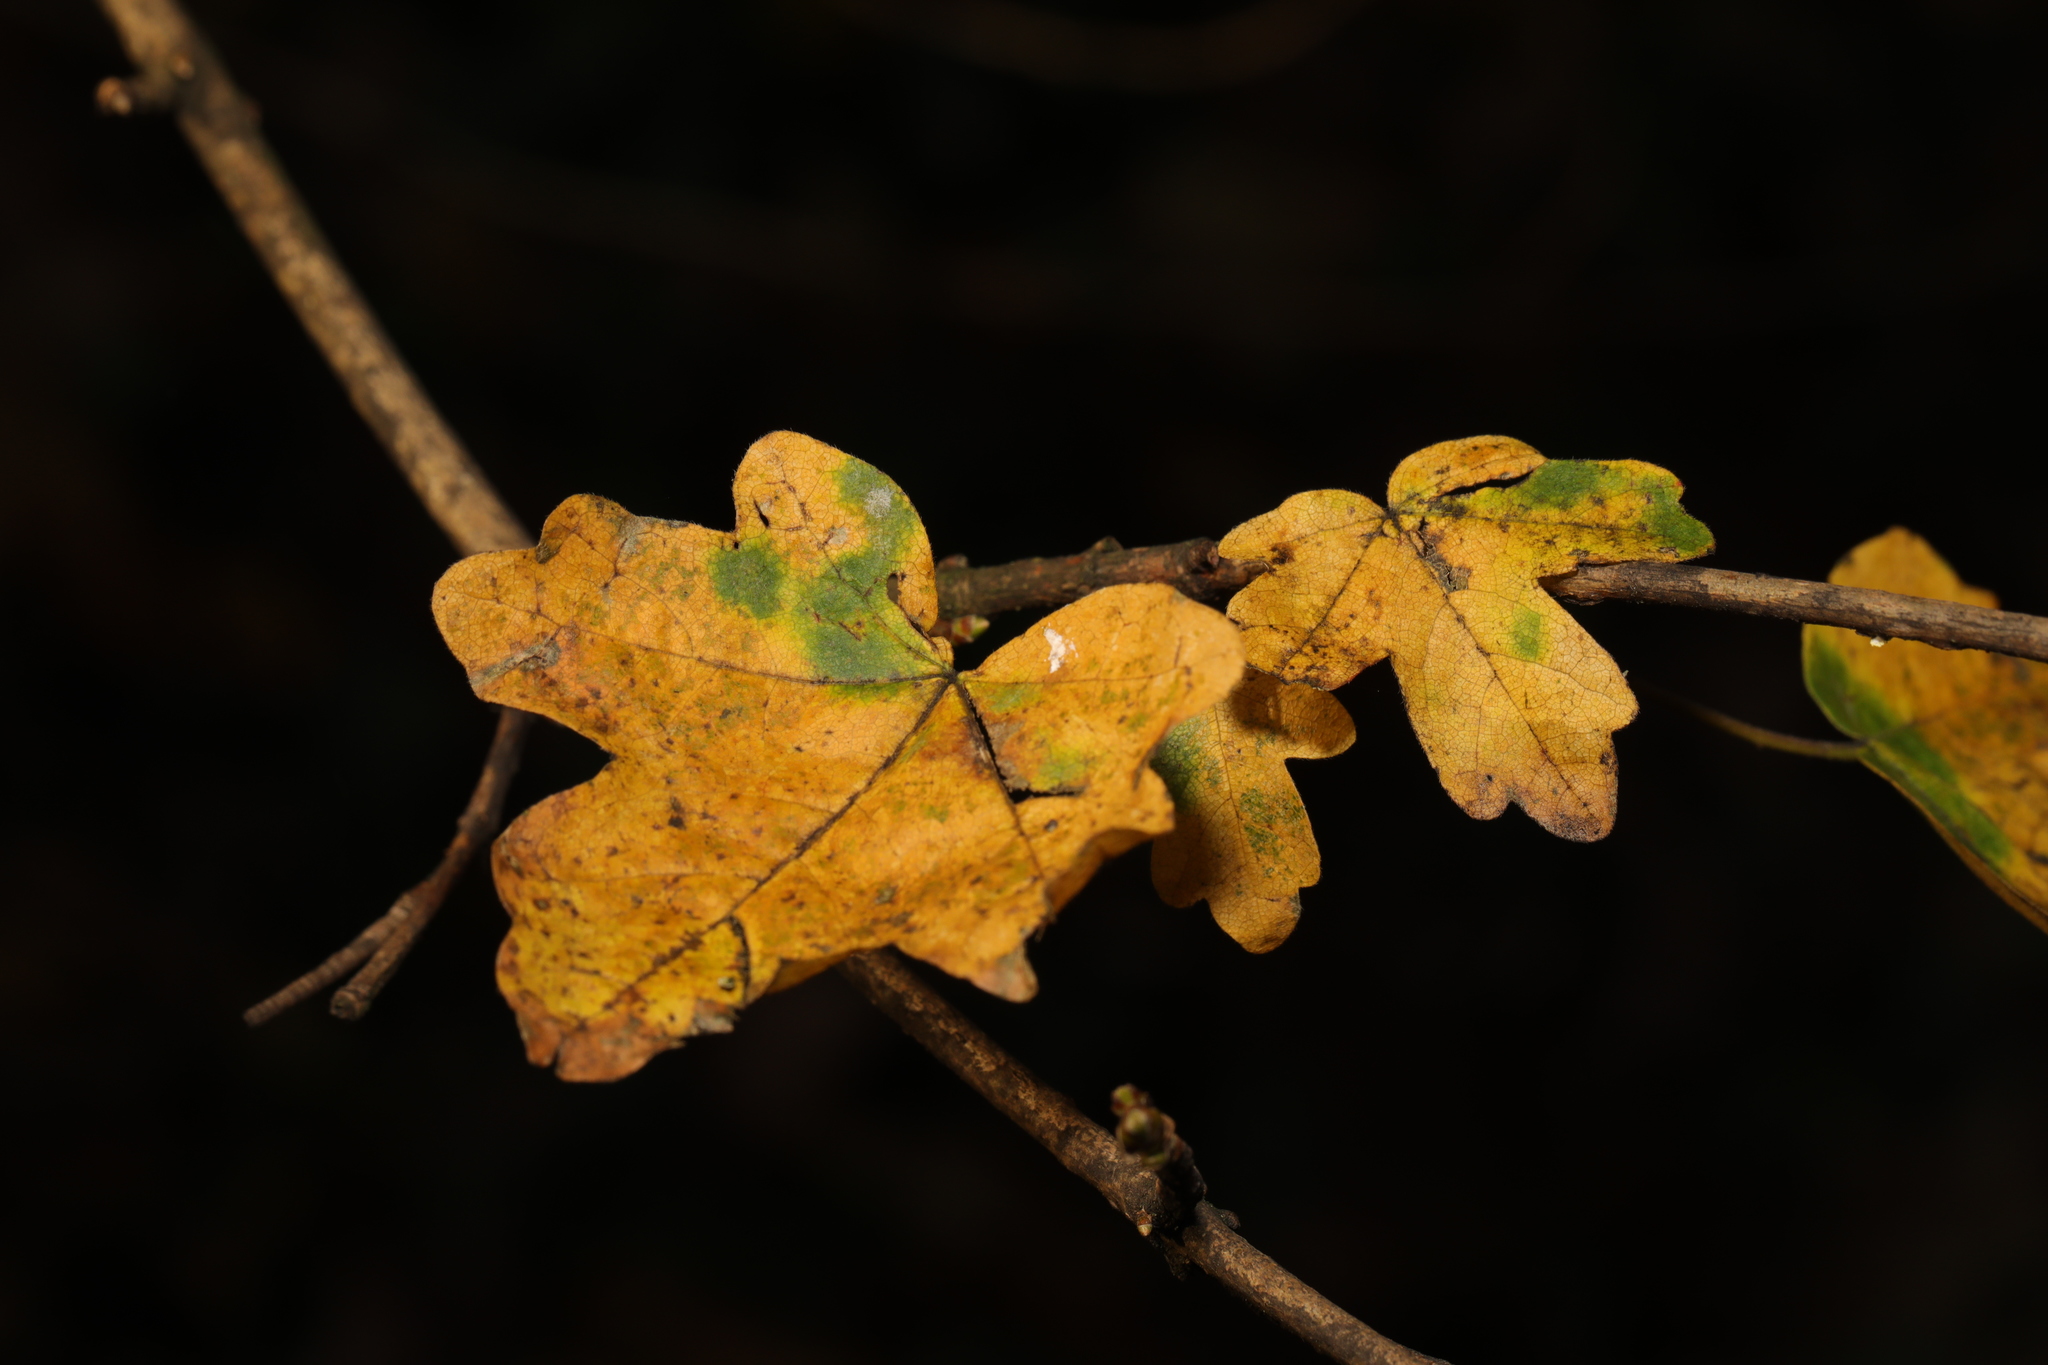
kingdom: Plantae
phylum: Tracheophyta
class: Magnoliopsida
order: Sapindales
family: Sapindaceae
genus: Acer
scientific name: Acer campestre
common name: Field maple
